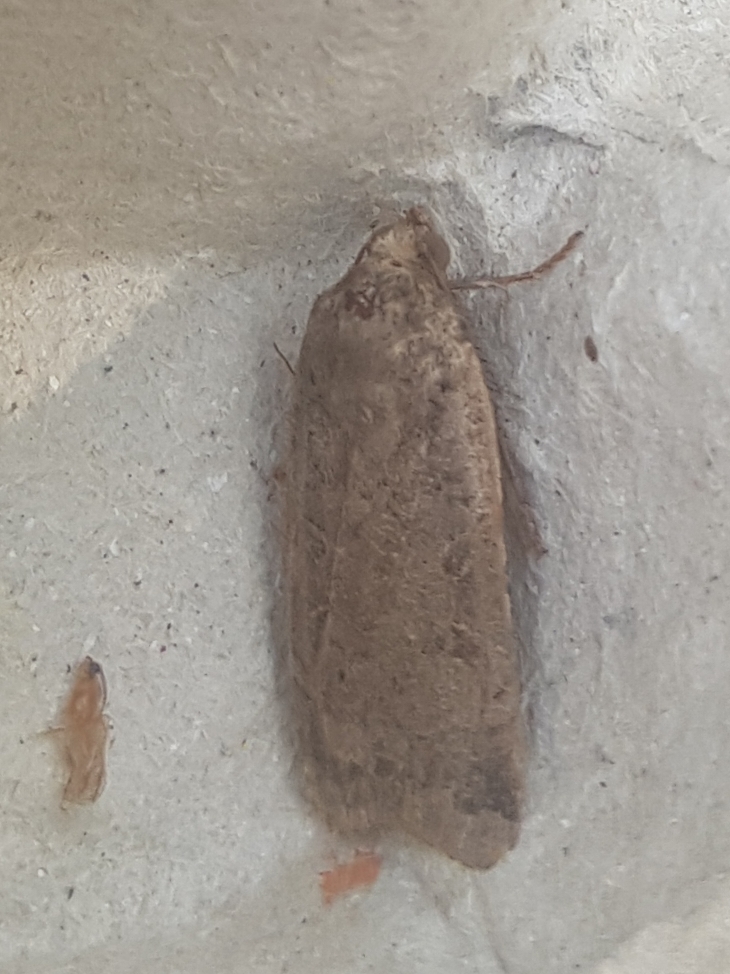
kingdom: Animalia
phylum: Arthropoda
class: Insecta
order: Lepidoptera
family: Noctuidae
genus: Noctua
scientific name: Noctua comes
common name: Lesser yellow underwing
